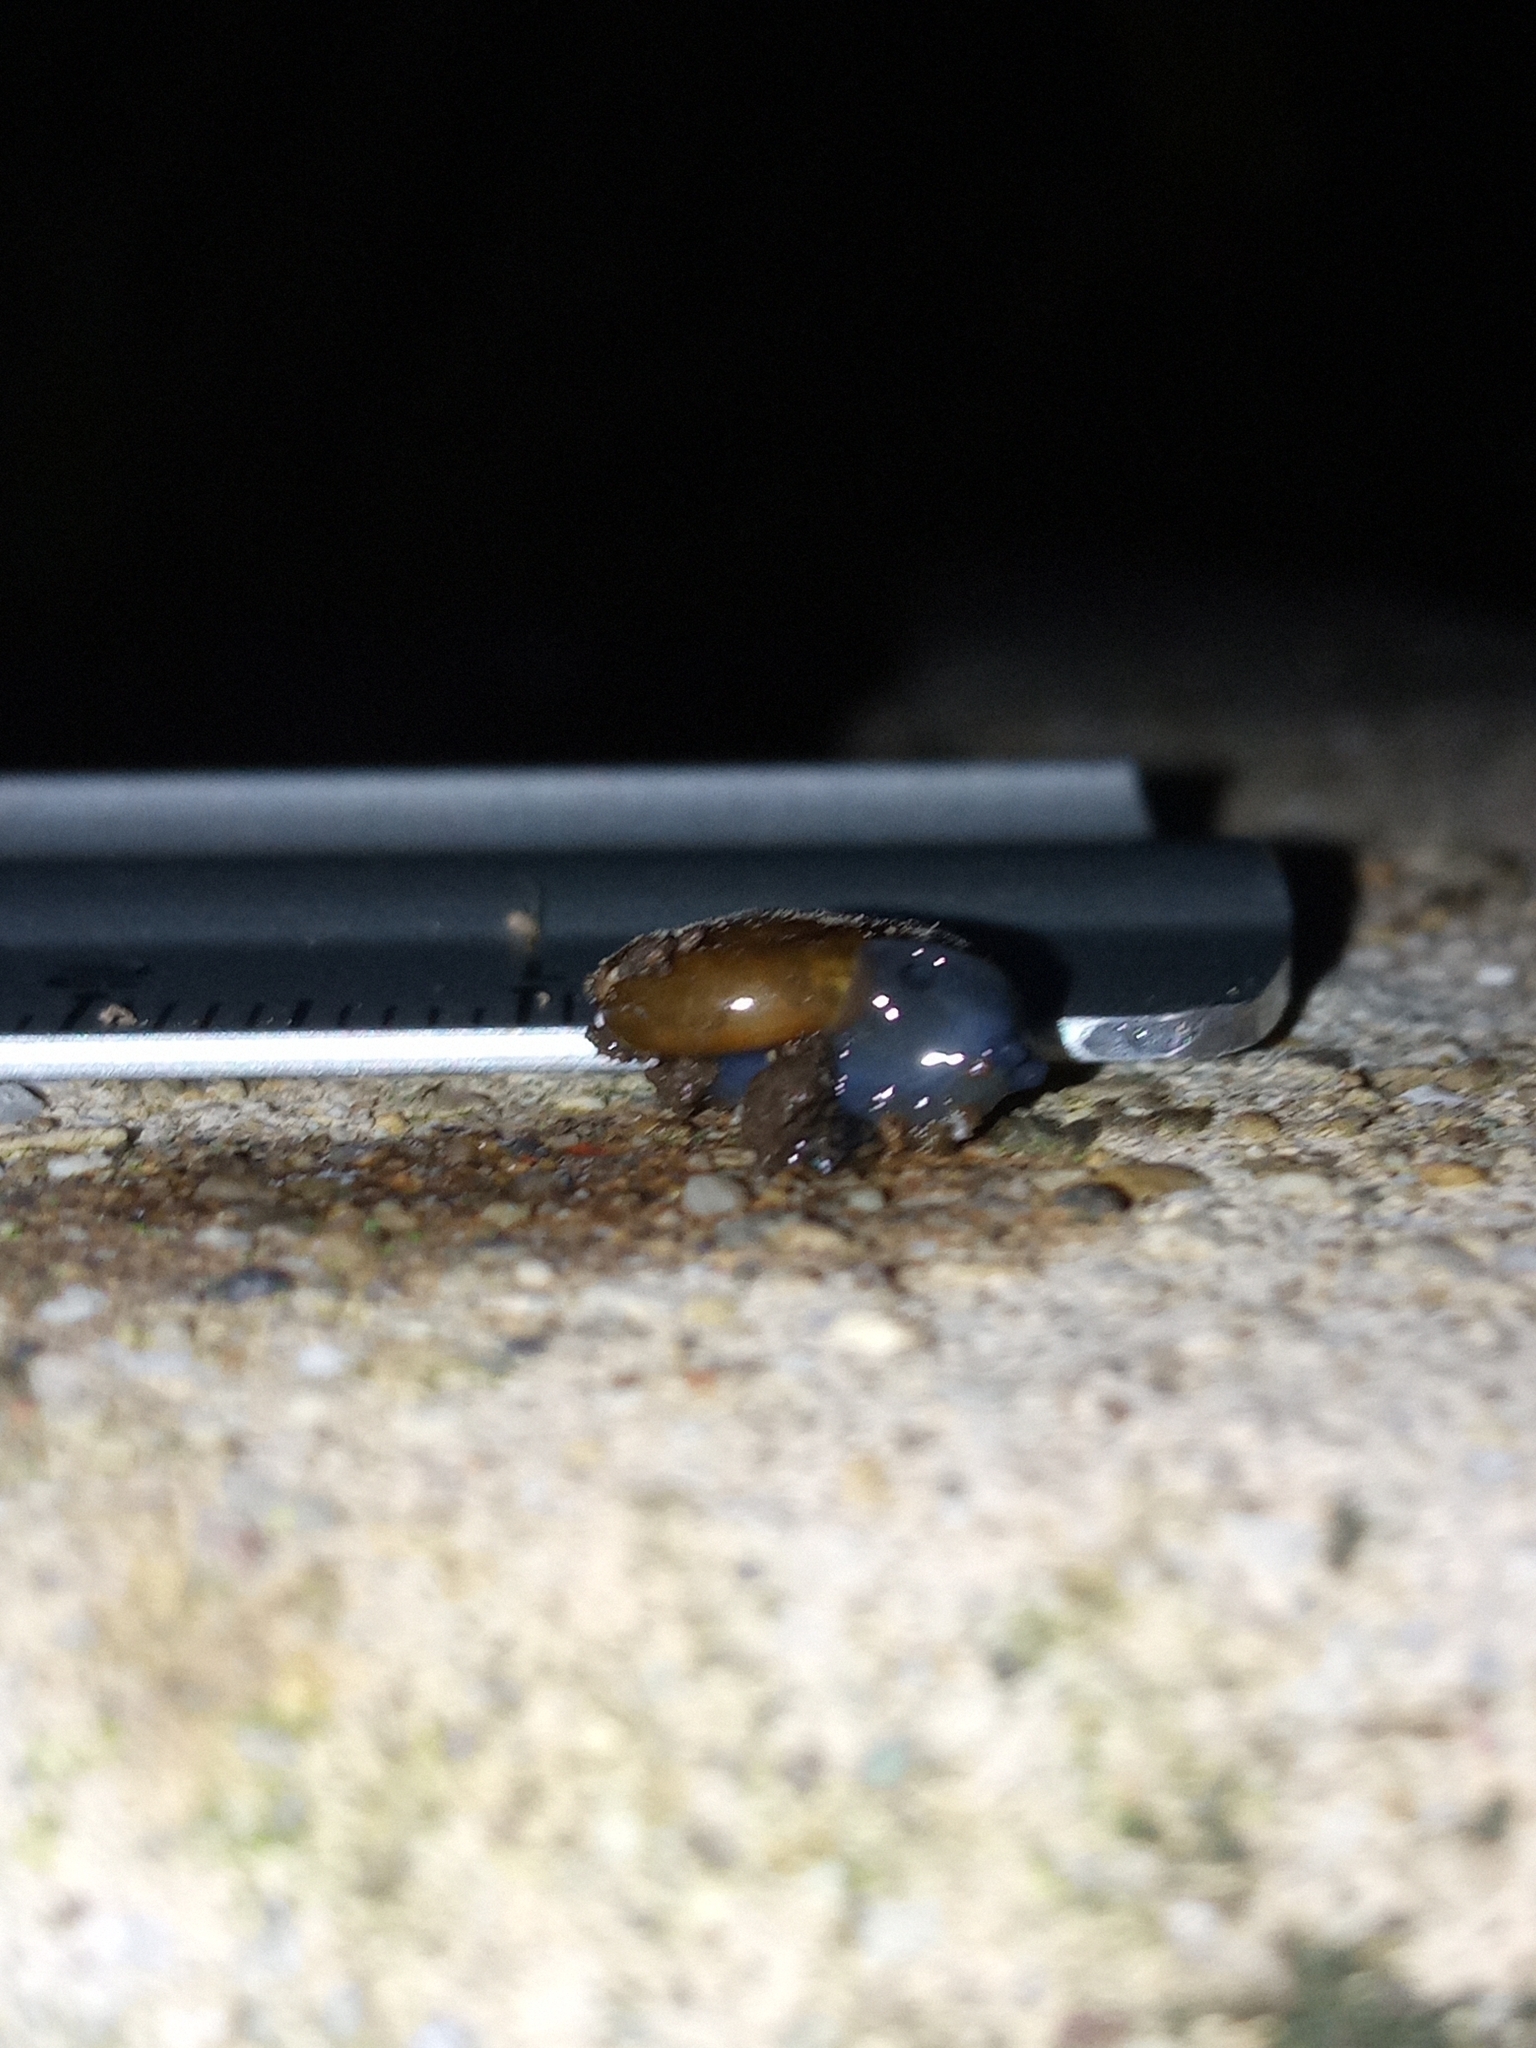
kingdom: Animalia
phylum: Mollusca
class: Gastropoda
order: Stylommatophora
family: Oxychilidae
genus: Oxychilus
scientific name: Oxychilus draparnaudi
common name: Draparnaud's glass snail
